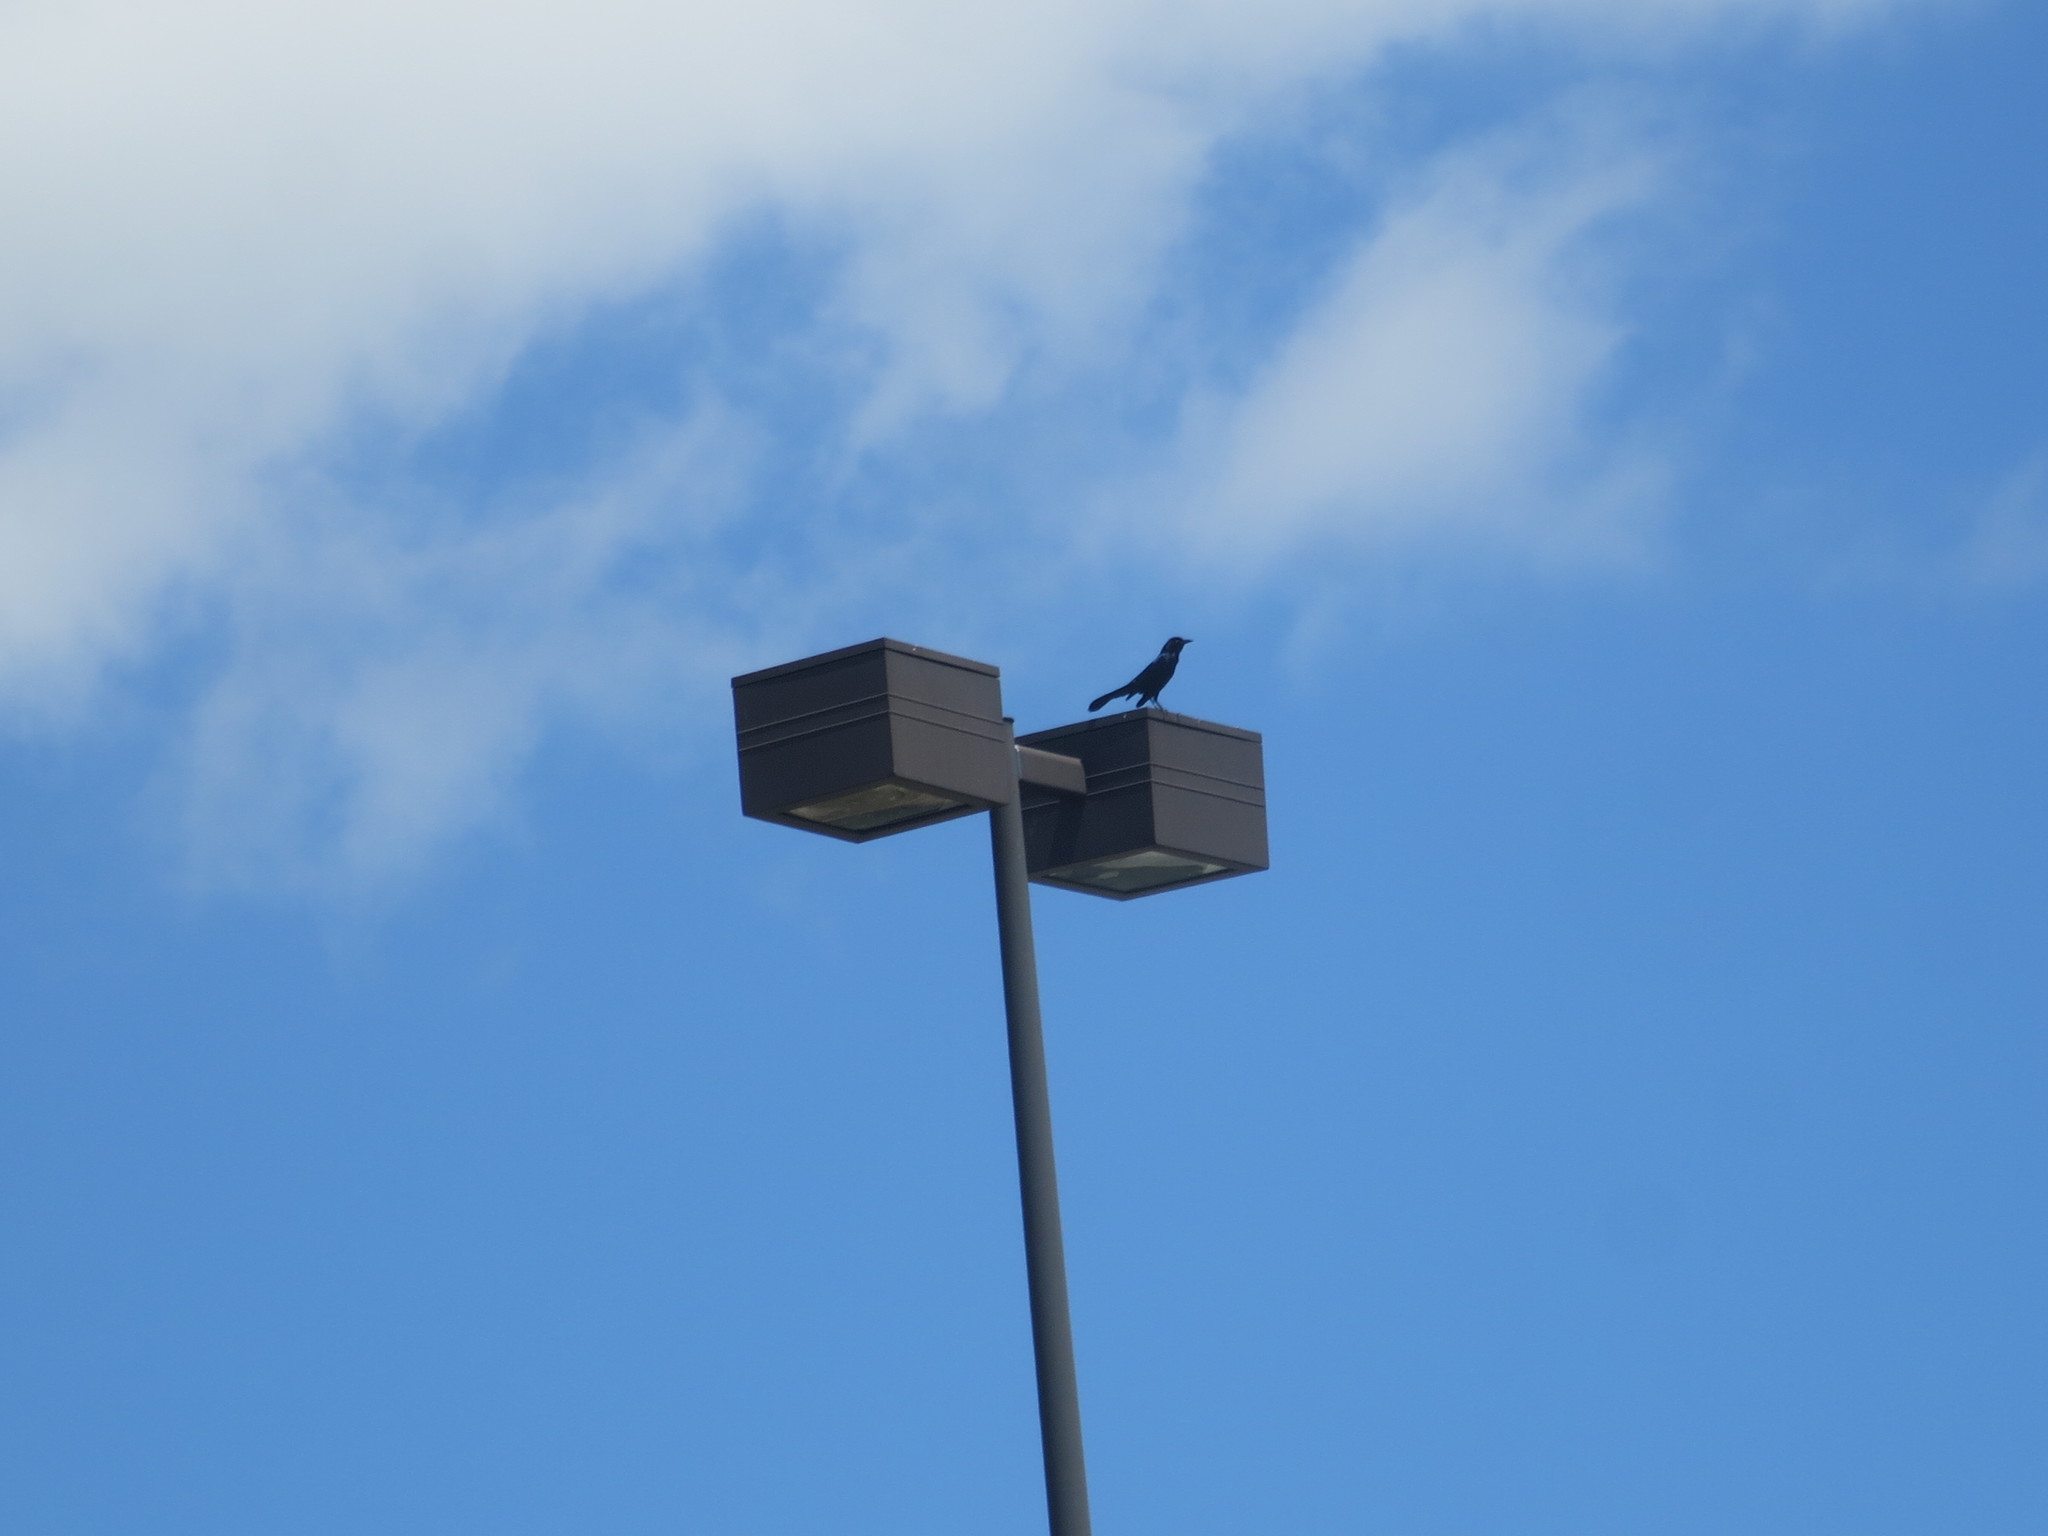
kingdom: Animalia
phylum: Chordata
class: Aves
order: Passeriformes
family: Icteridae
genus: Quiscalus
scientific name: Quiscalus major
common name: Boat-tailed grackle
